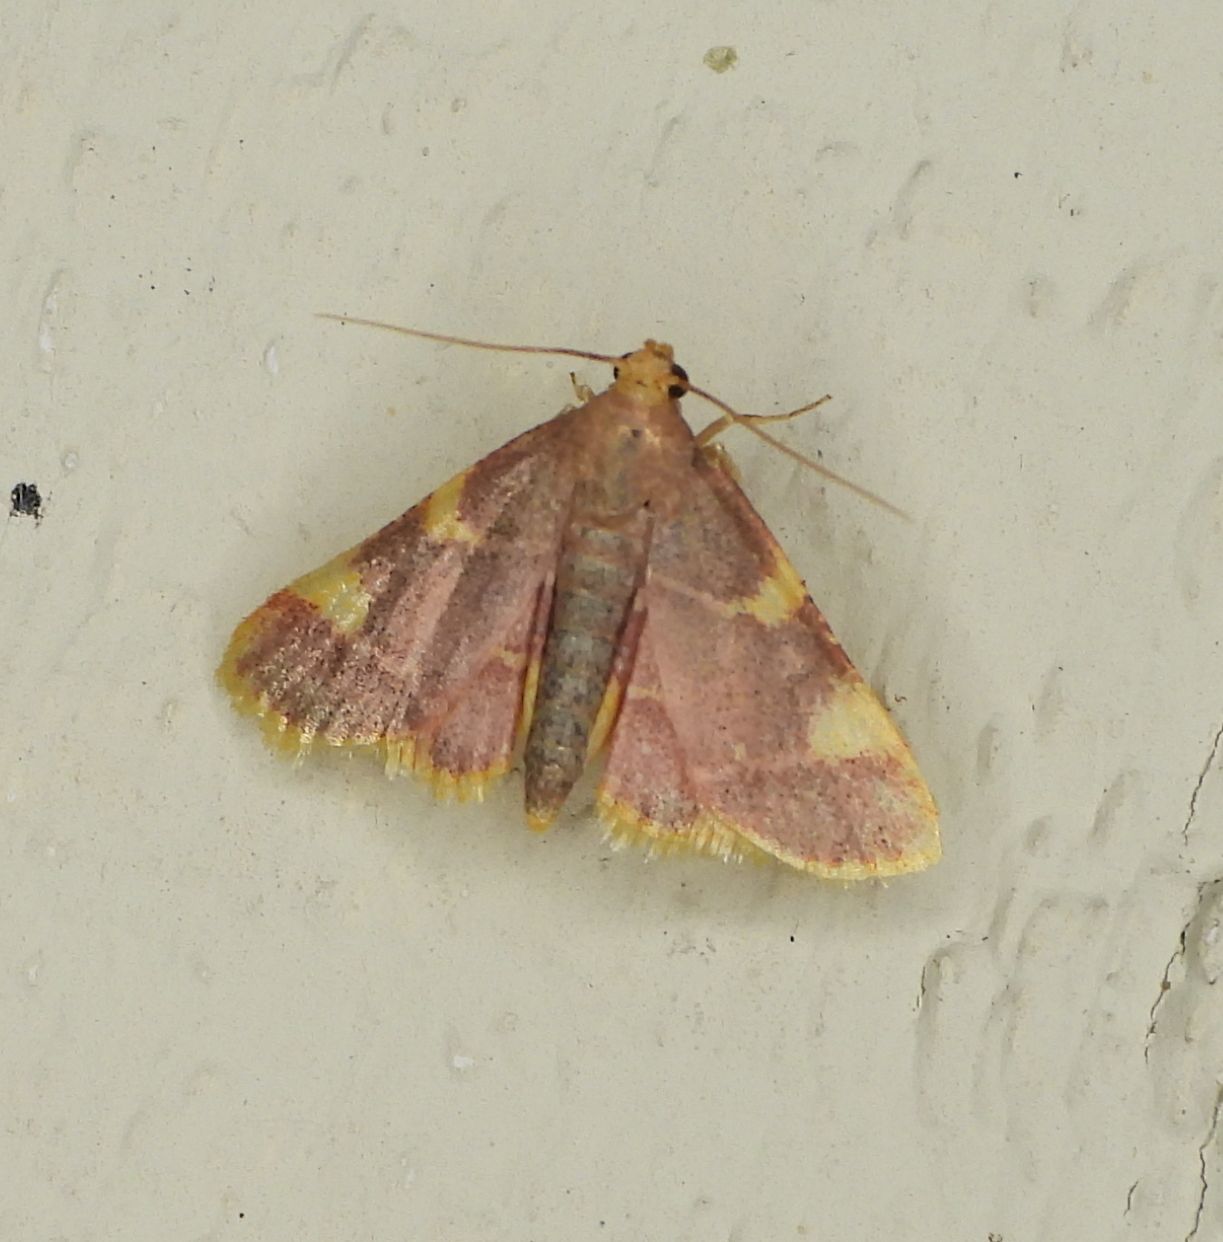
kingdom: Animalia
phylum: Arthropoda
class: Insecta
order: Lepidoptera
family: Pyralidae
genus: Hypsopygia
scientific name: Hypsopygia costalis
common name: Gold triangle
